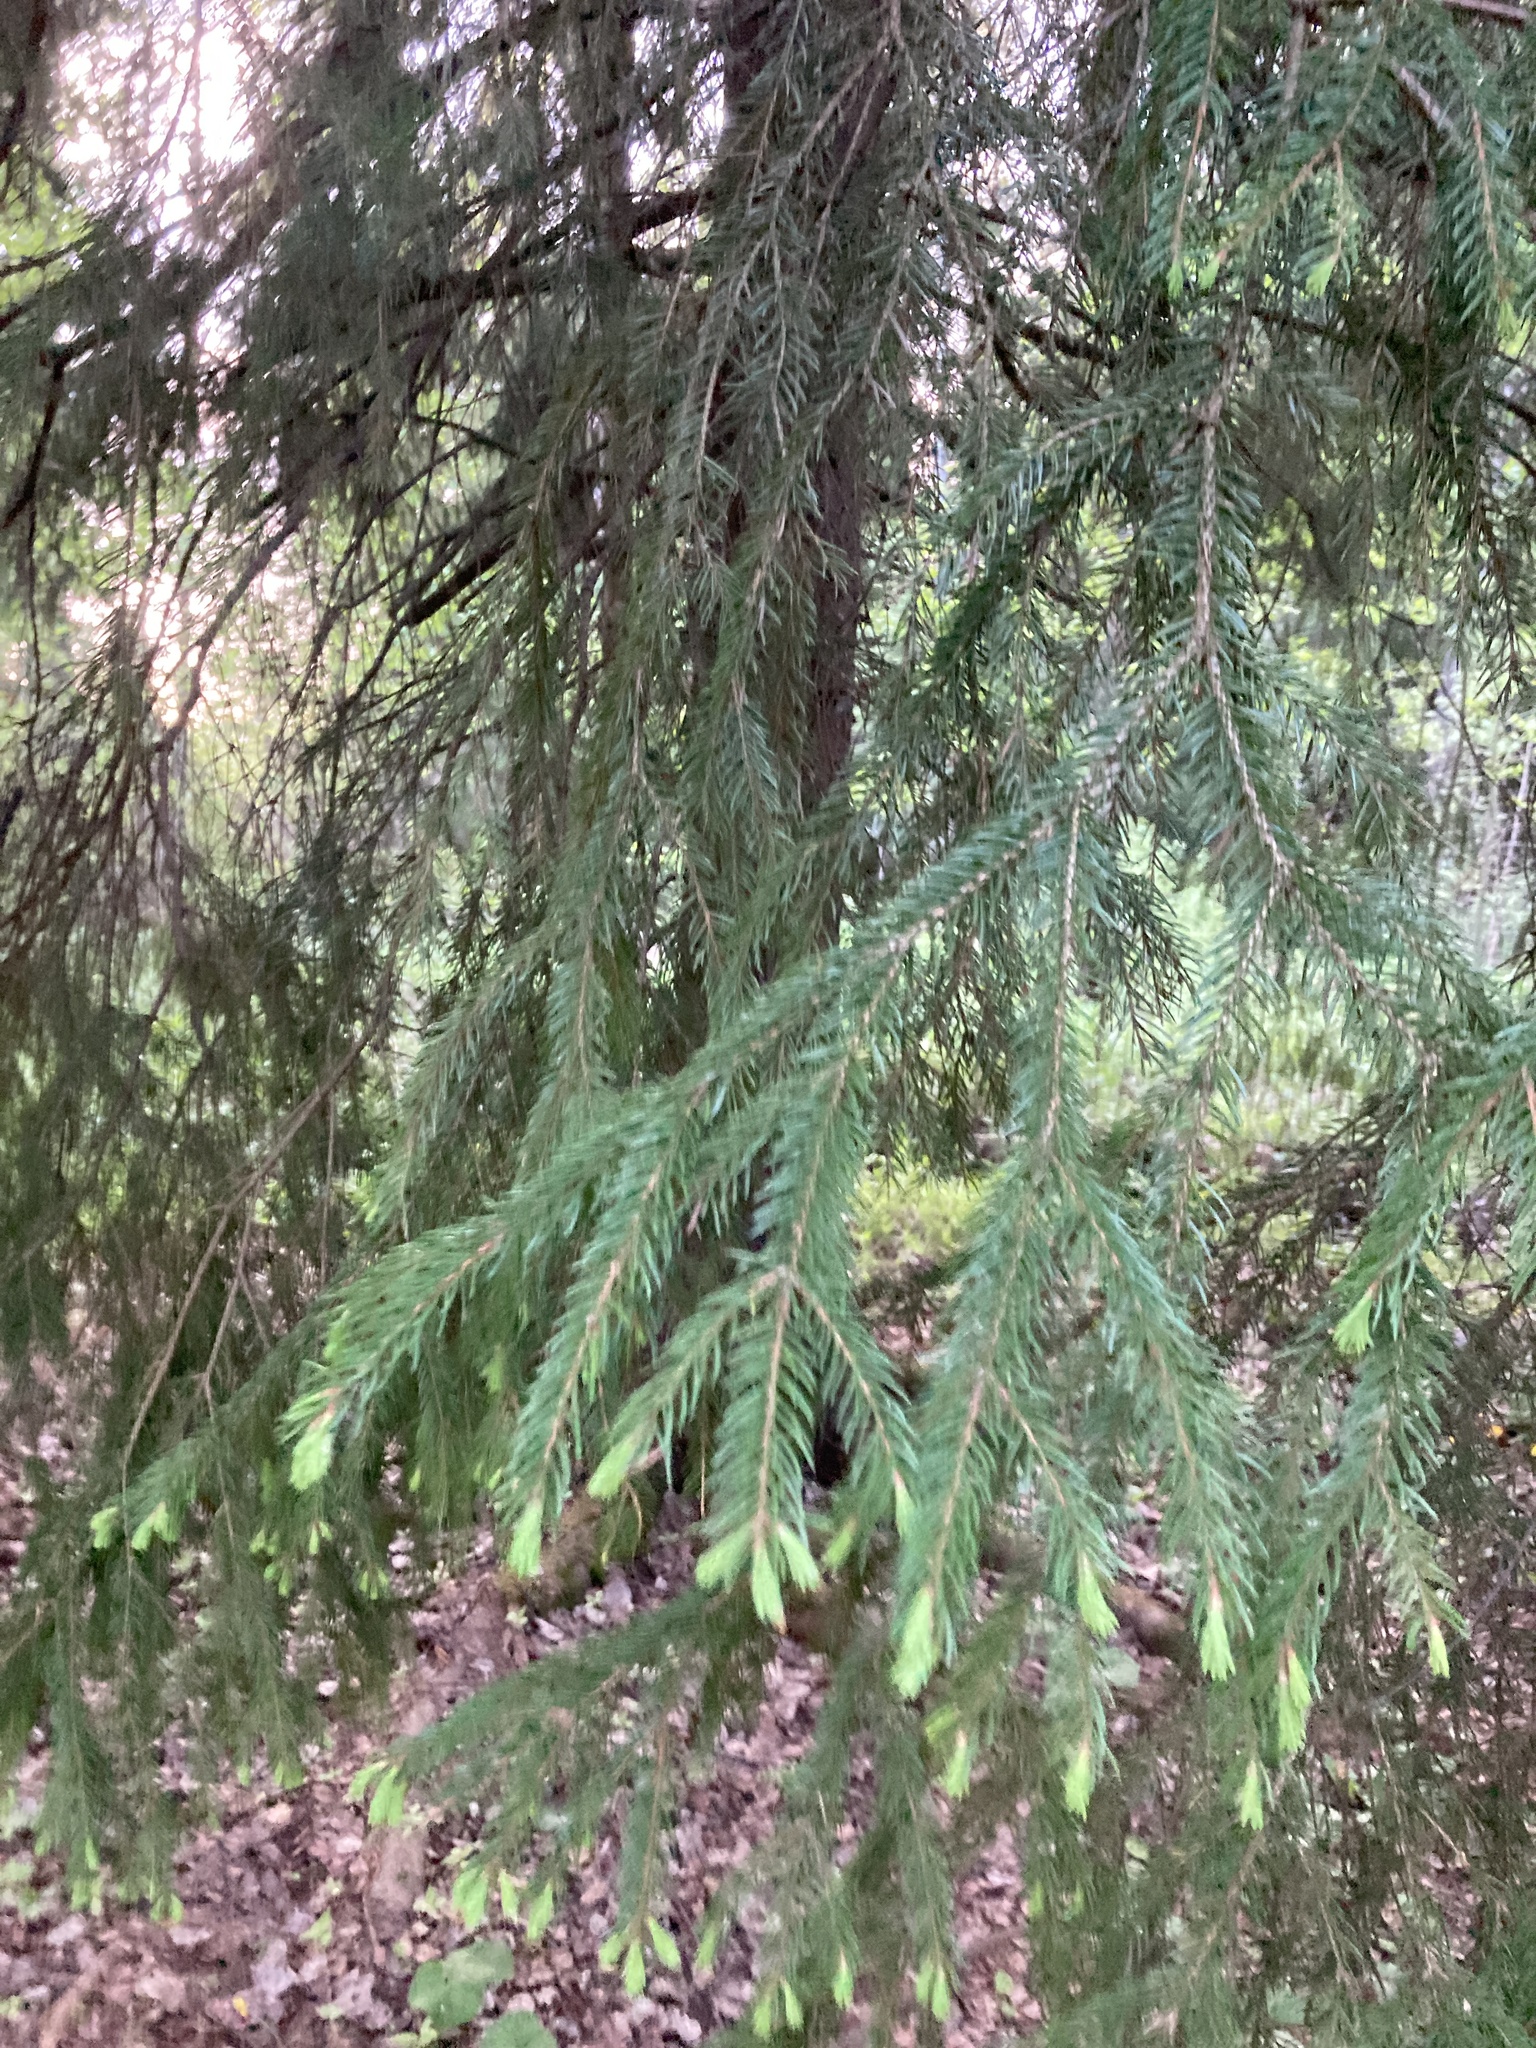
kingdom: Plantae
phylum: Tracheophyta
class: Pinopsida
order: Pinales
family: Pinaceae
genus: Picea
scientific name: Picea abies
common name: Norway spruce
